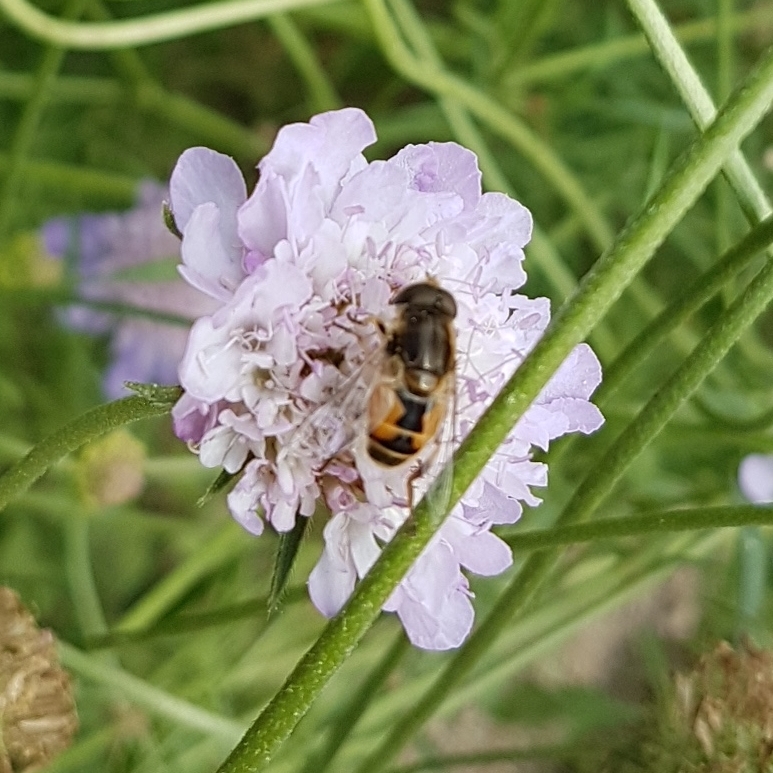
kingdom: Animalia
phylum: Arthropoda
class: Insecta
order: Diptera
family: Syrphidae
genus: Eristalis
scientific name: Eristalis arbustorum
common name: Hover fly
